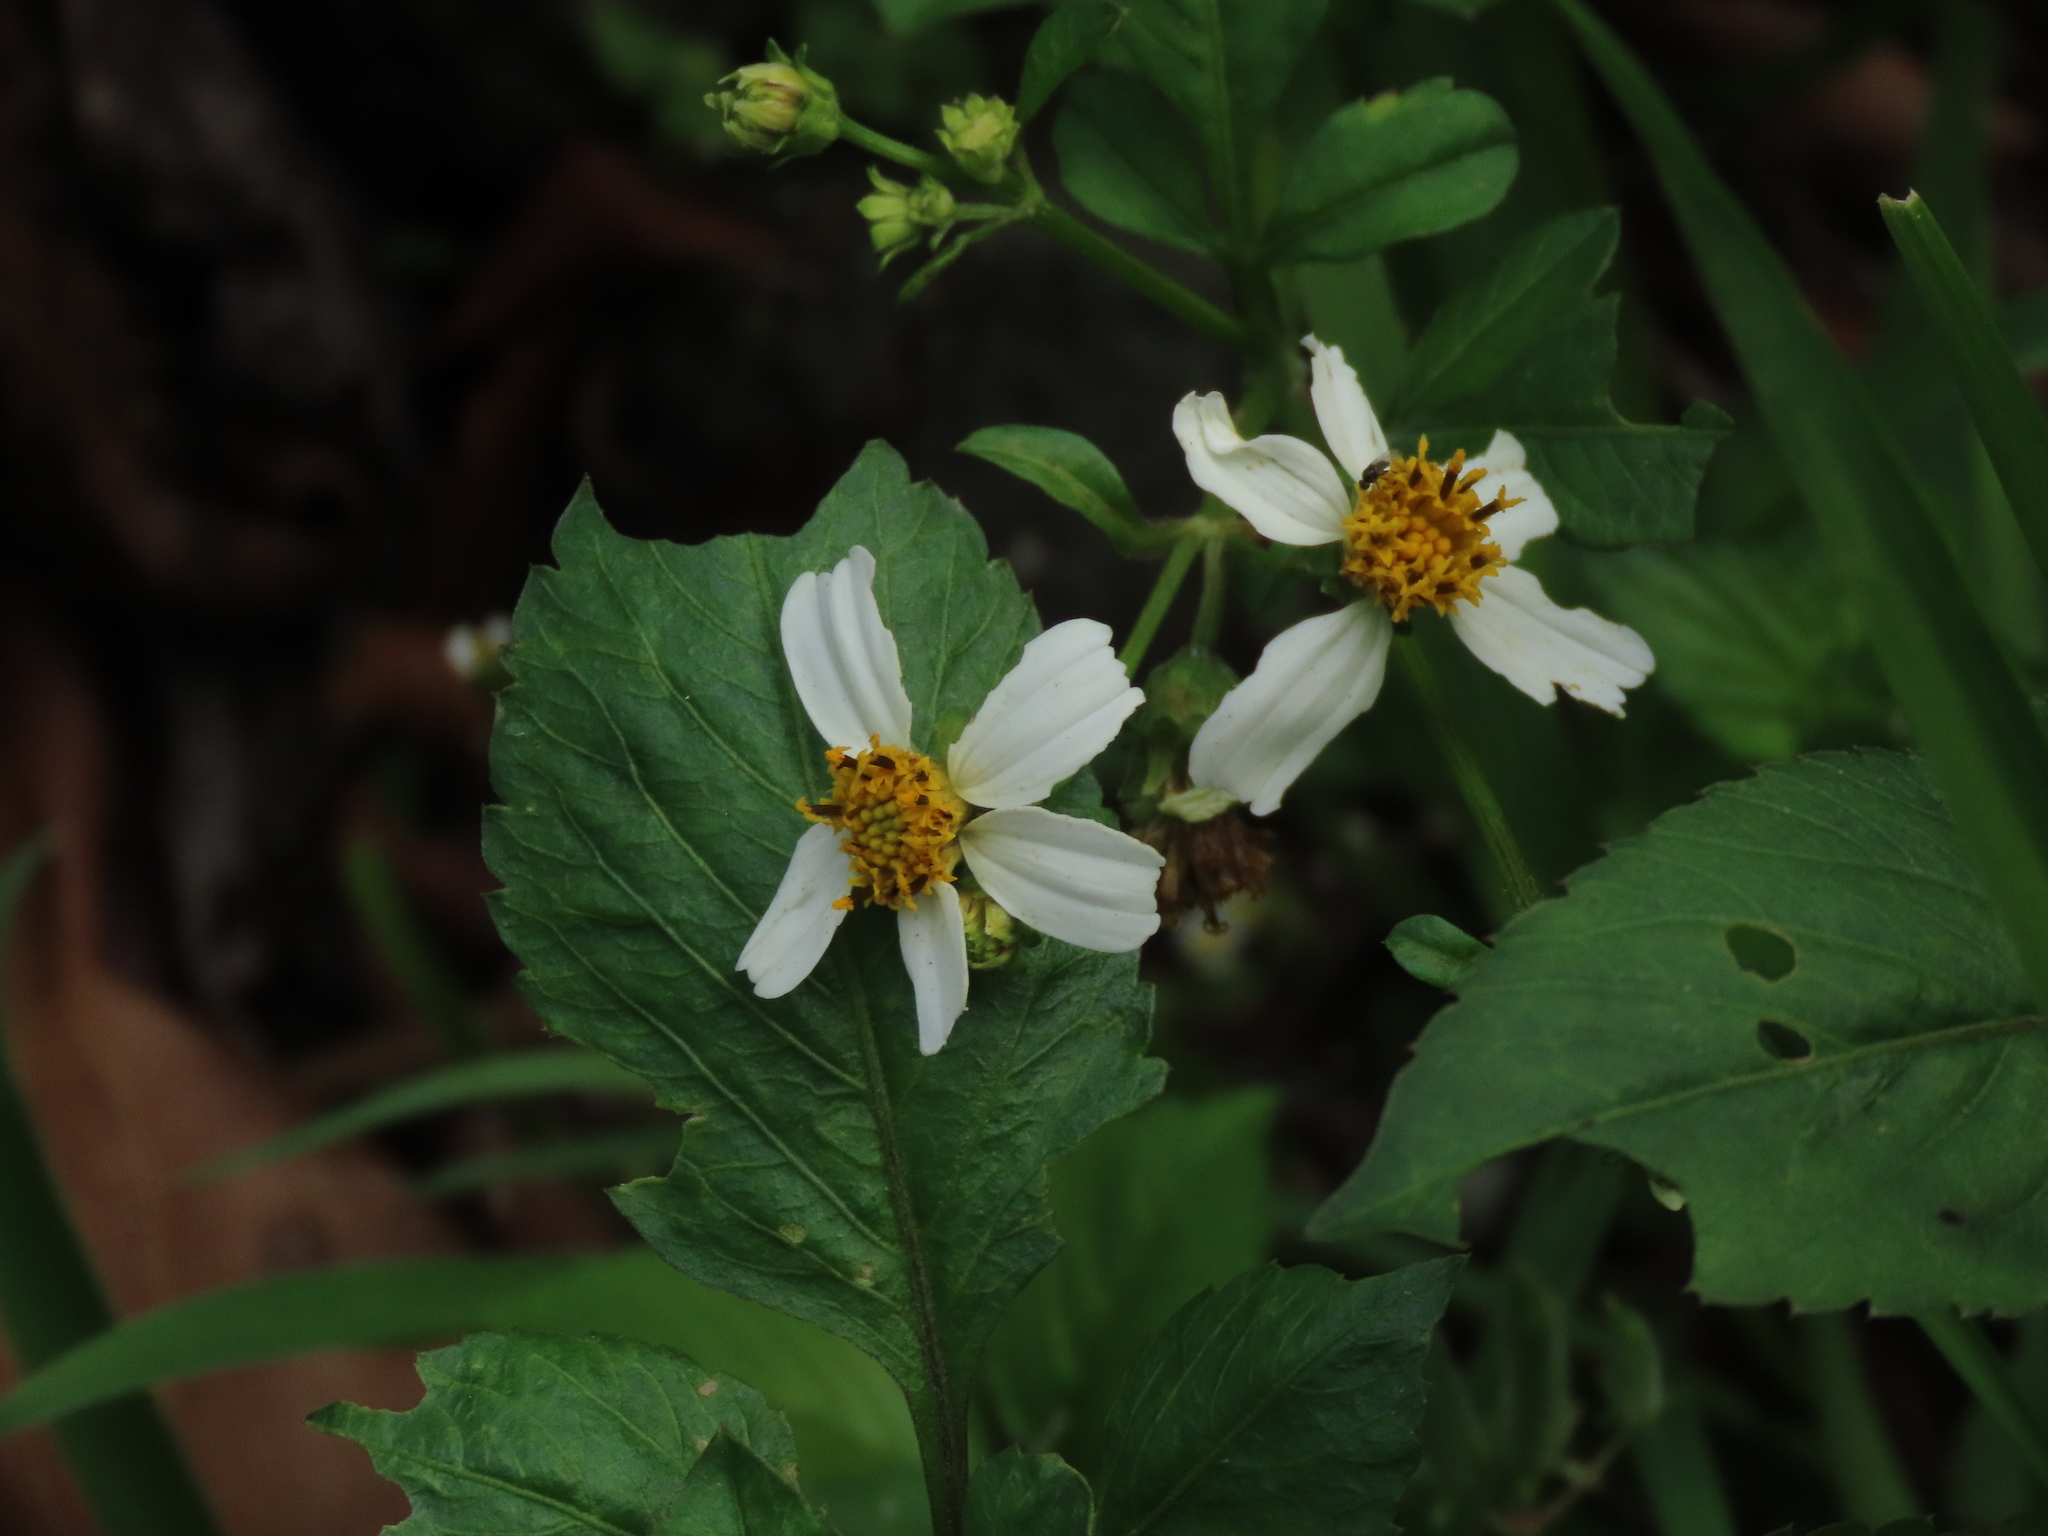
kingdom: Plantae
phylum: Tracheophyta
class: Magnoliopsida
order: Asterales
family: Asteraceae
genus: Bidens
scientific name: Bidens alba
